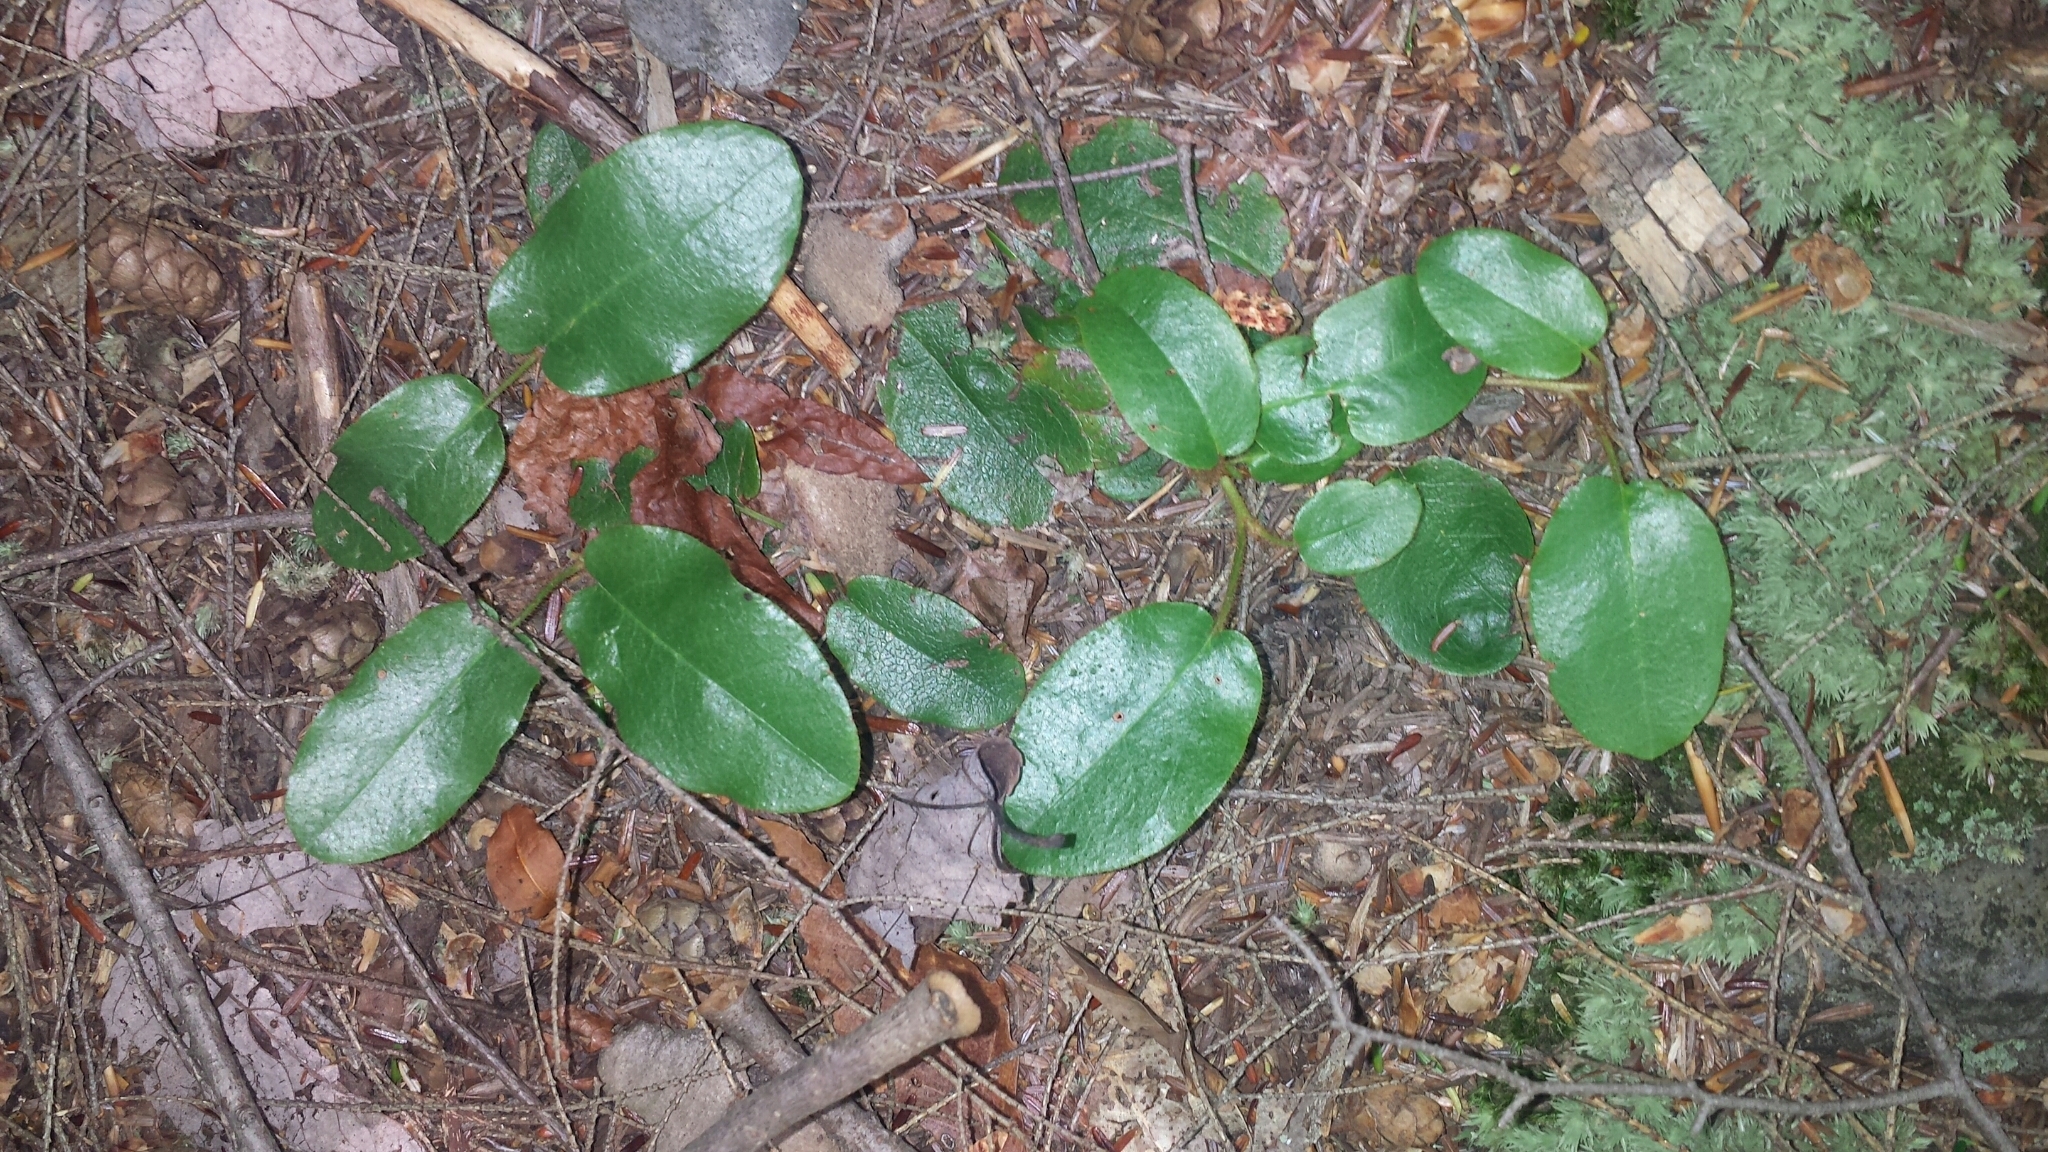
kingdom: Plantae
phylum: Tracheophyta
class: Magnoliopsida
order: Ericales
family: Ericaceae
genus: Epigaea
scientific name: Epigaea repens
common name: Gravelroot
